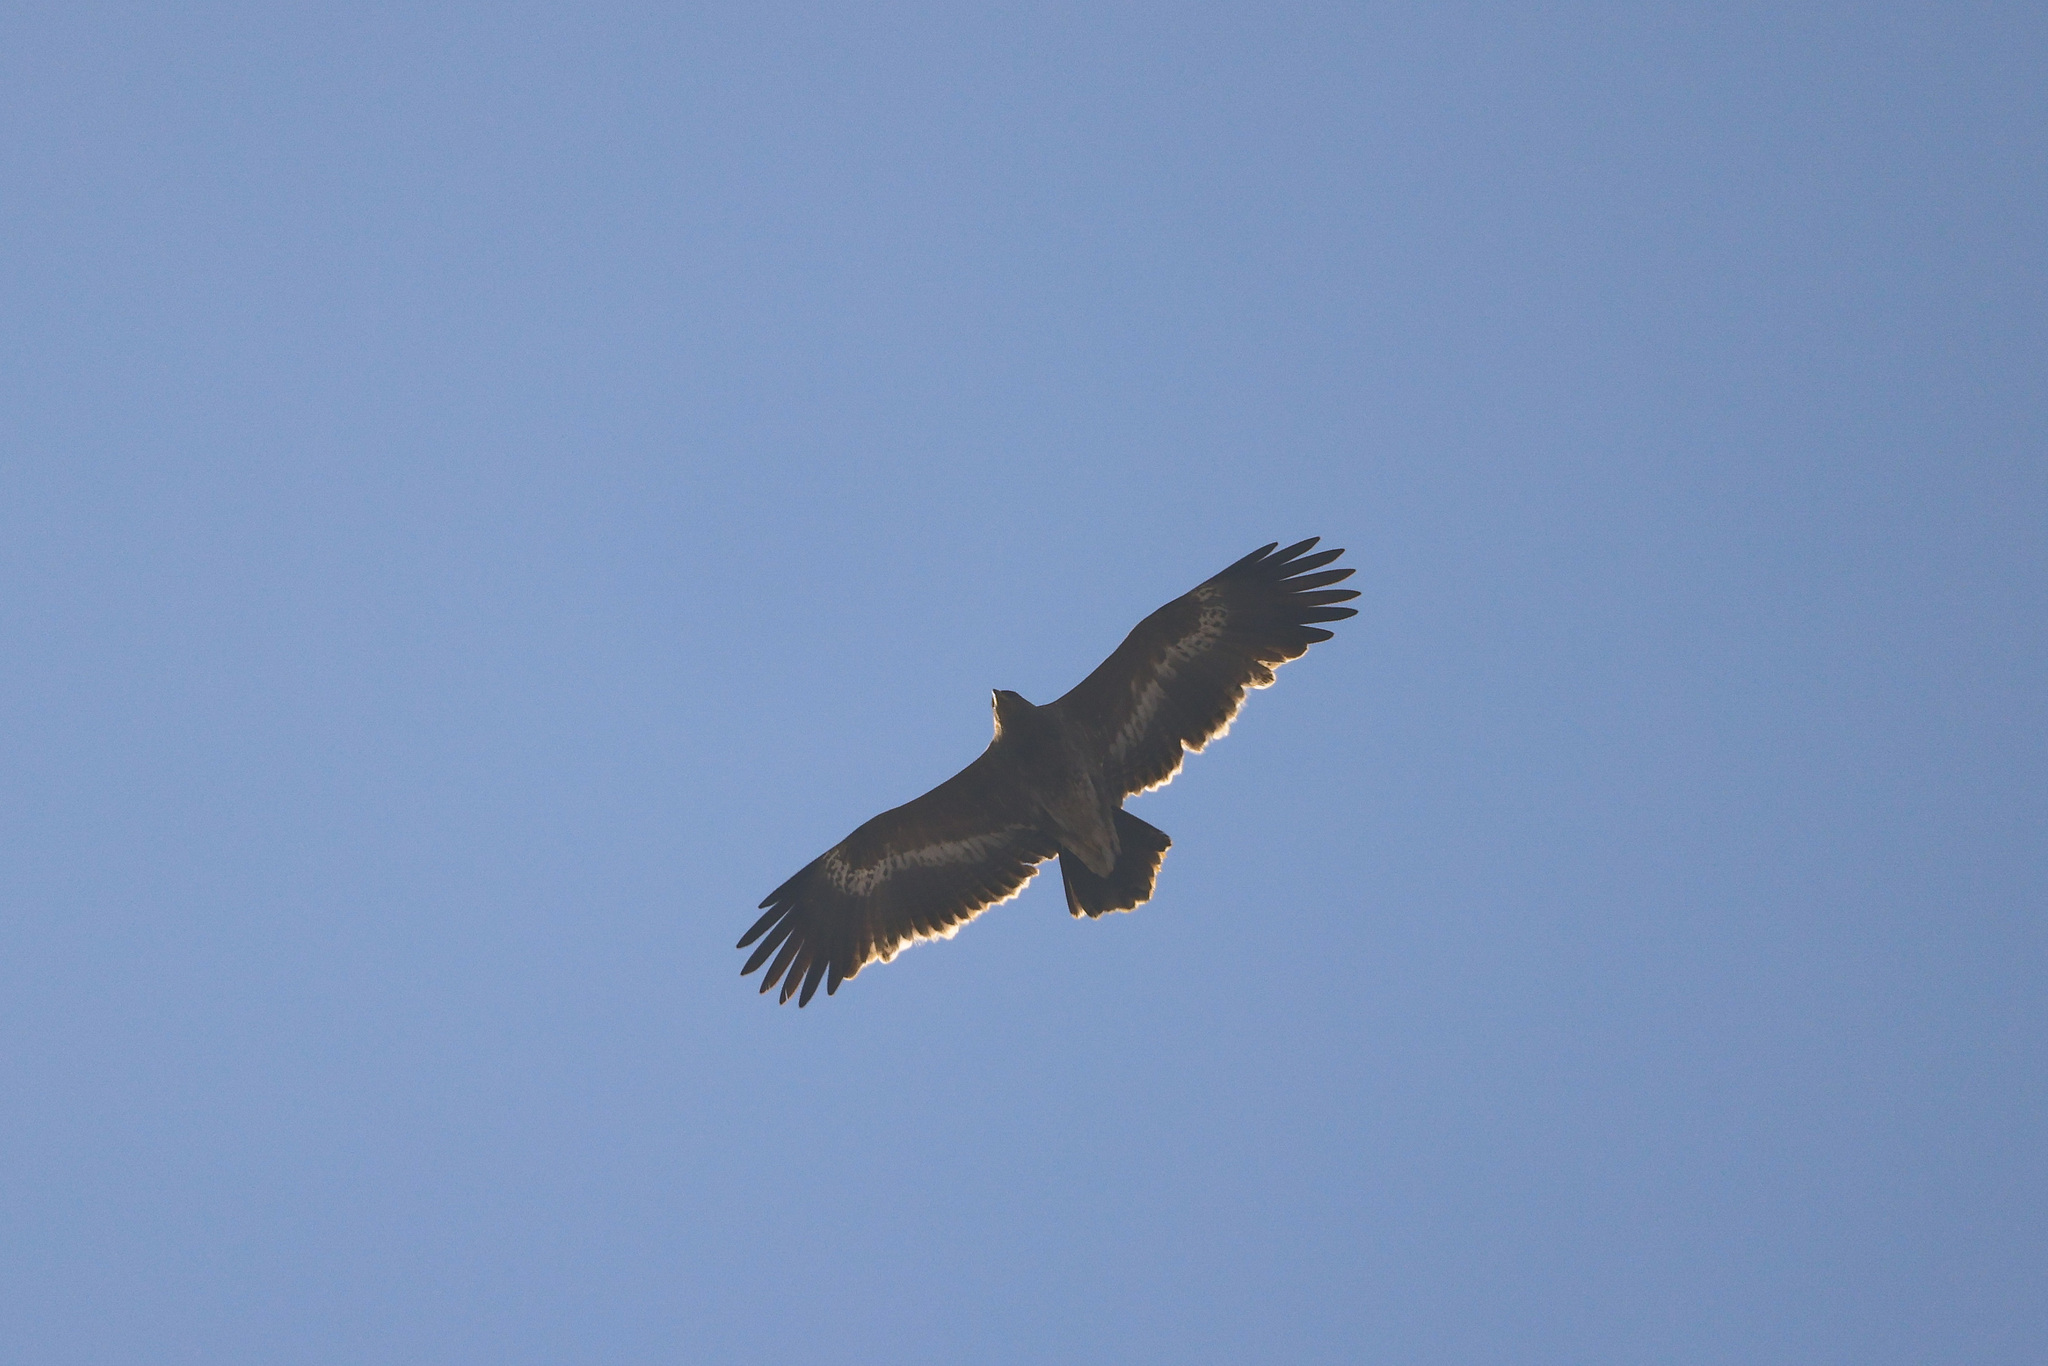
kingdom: Animalia
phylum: Chordata
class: Aves
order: Accipitriformes
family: Accipitridae
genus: Aquila
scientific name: Aquila nipalensis
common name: Steppe eagle
